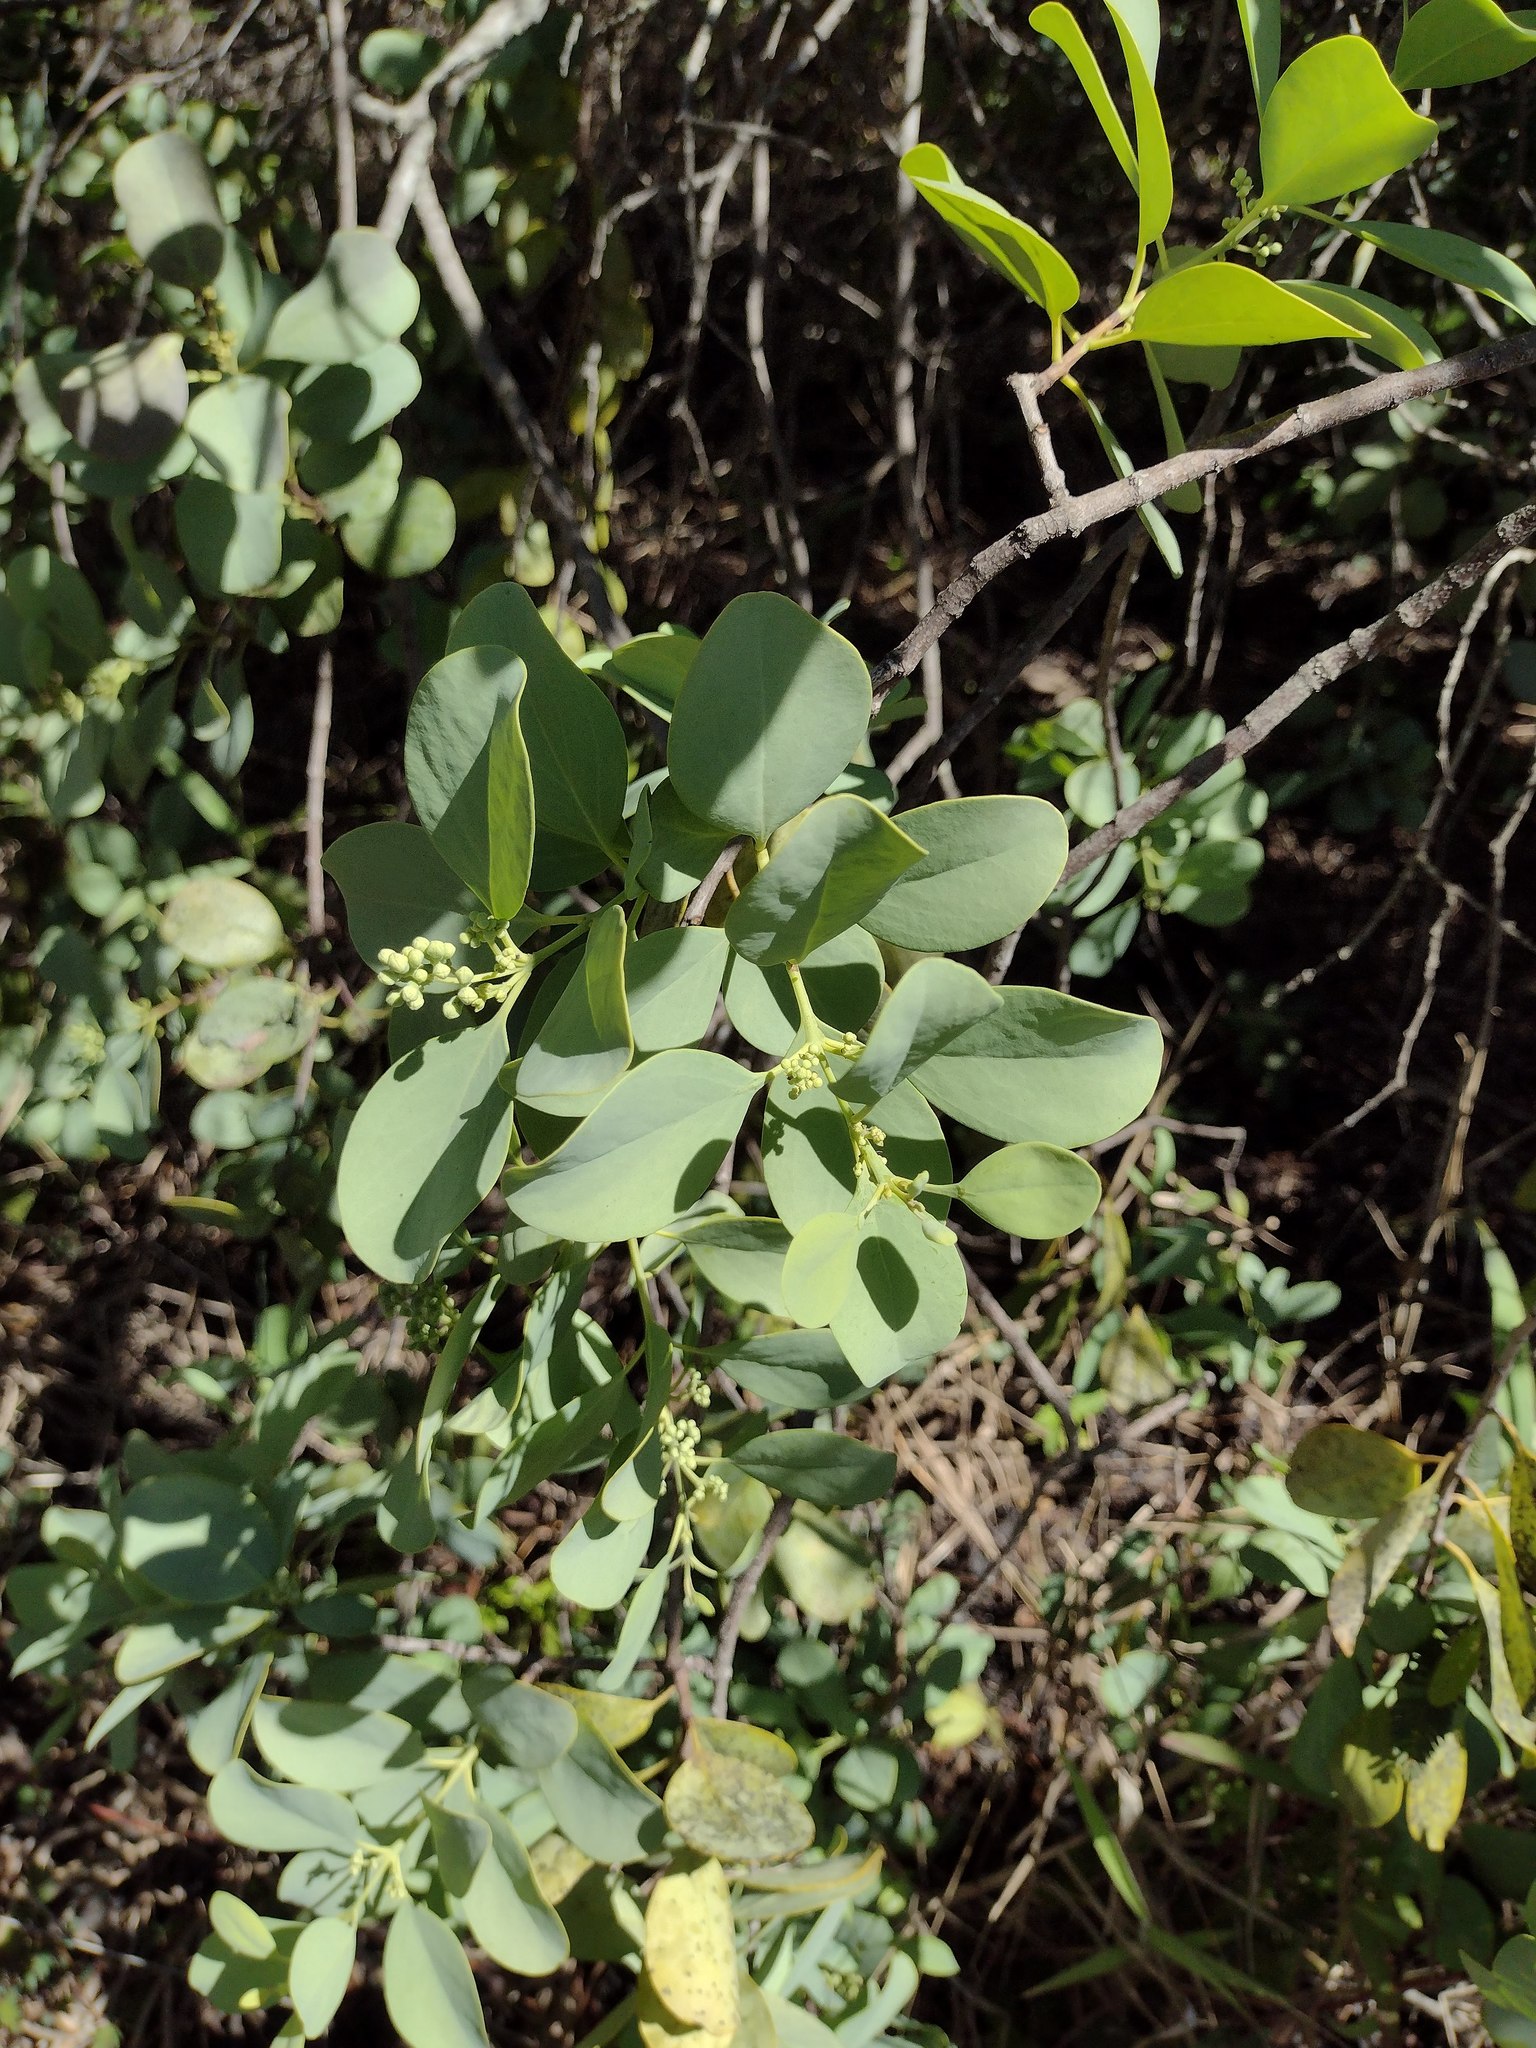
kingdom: Plantae
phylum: Tracheophyta
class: Magnoliopsida
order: Santalales
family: Santalaceae
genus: Santalum
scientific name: Santalum ellipticum
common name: Coast sandalwood
